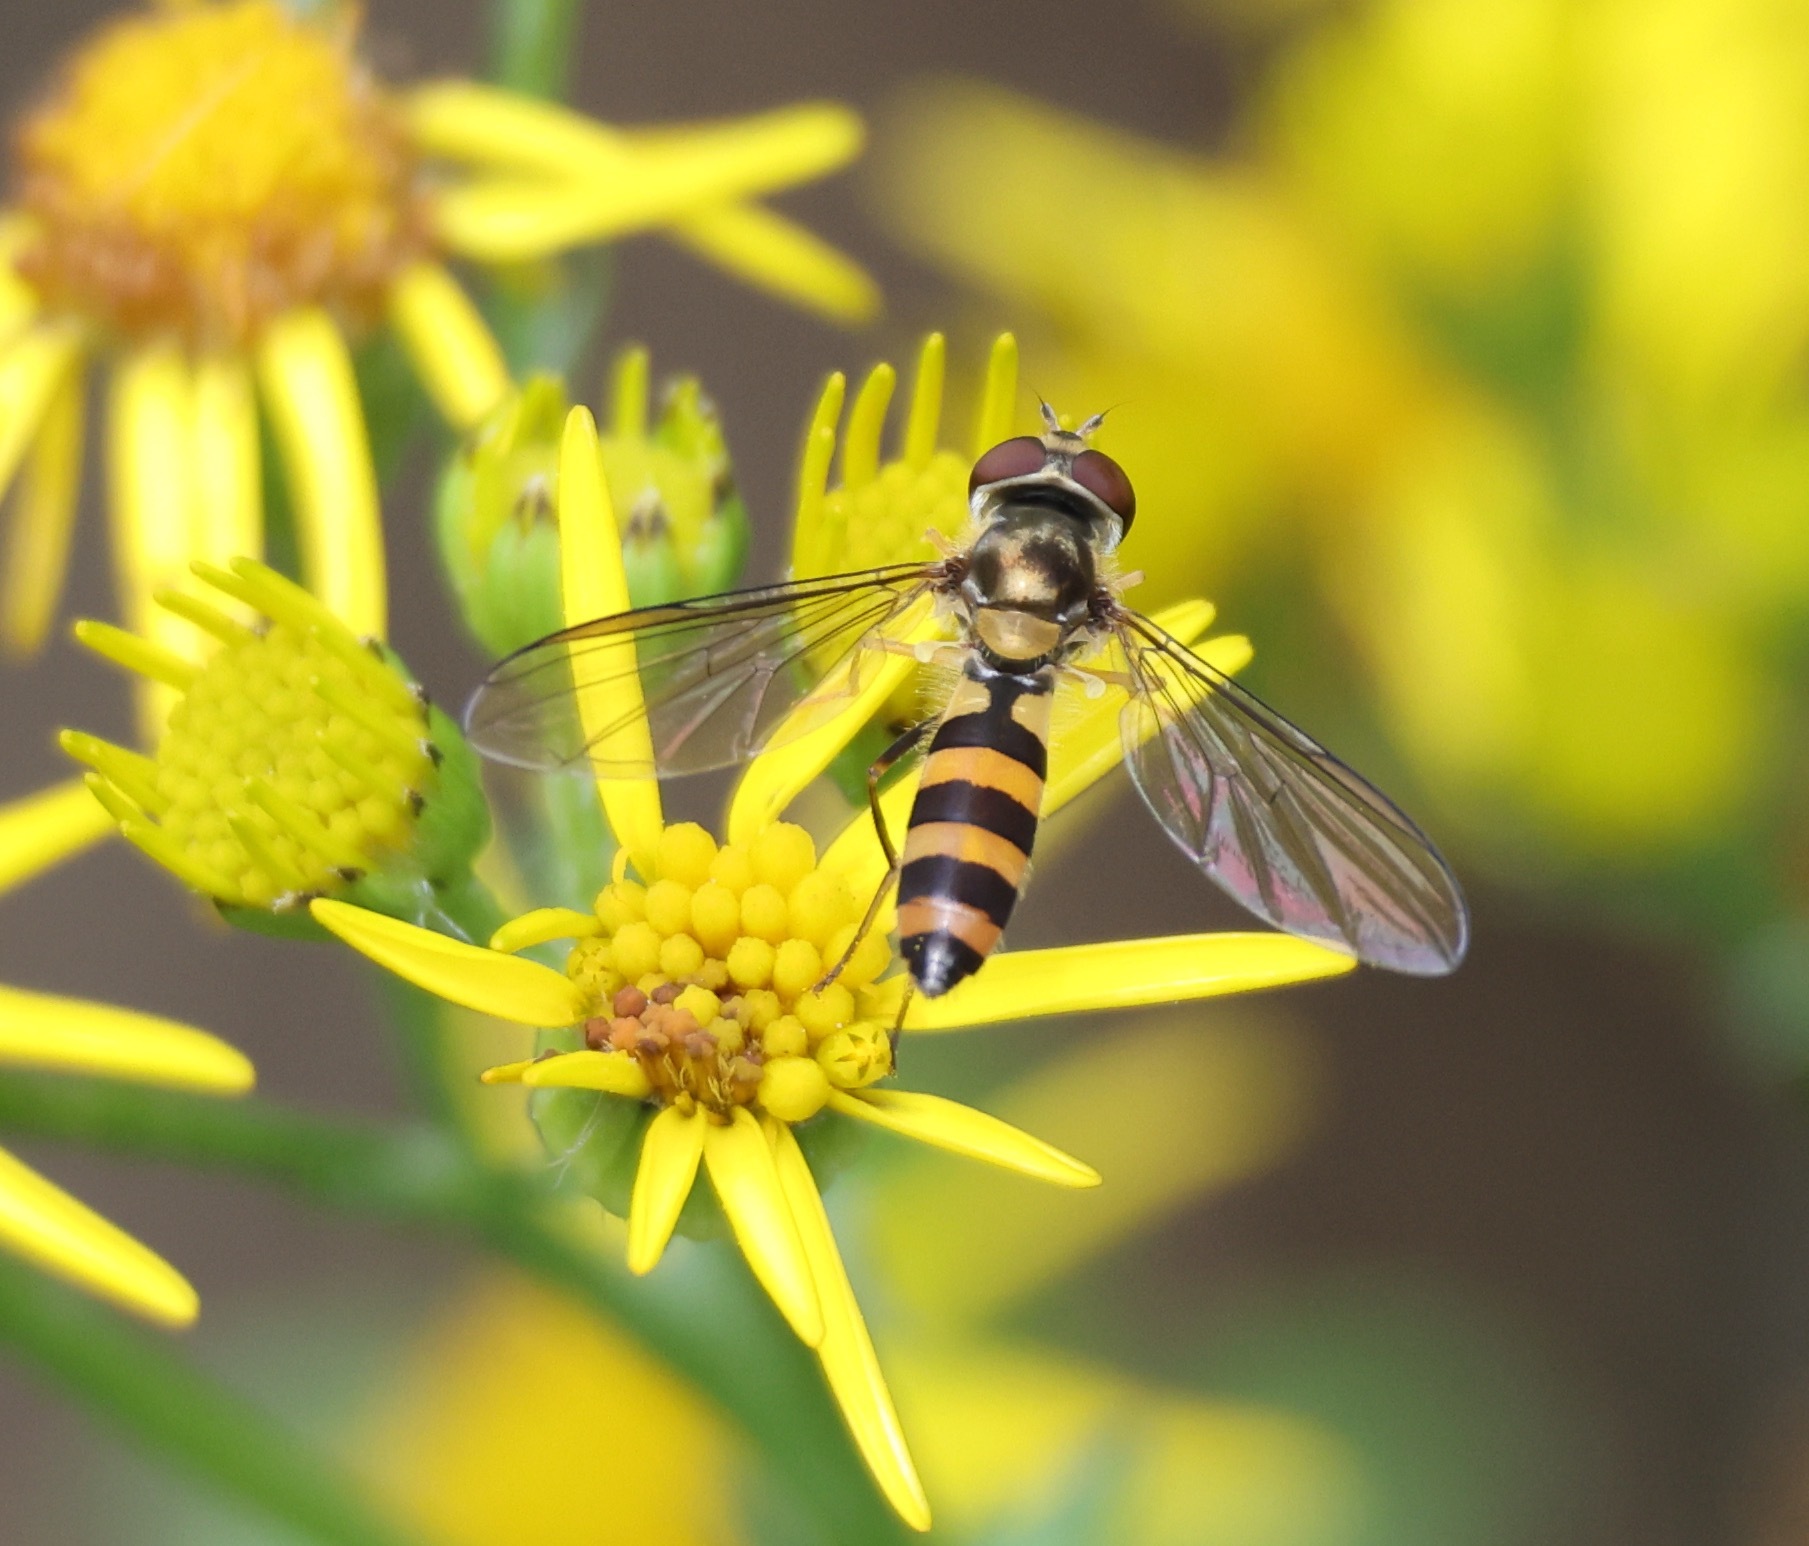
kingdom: Animalia
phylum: Arthropoda
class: Insecta
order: Diptera
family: Syrphidae
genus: Meliscaeva
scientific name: Meliscaeva cinctella
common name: American thintail fly
